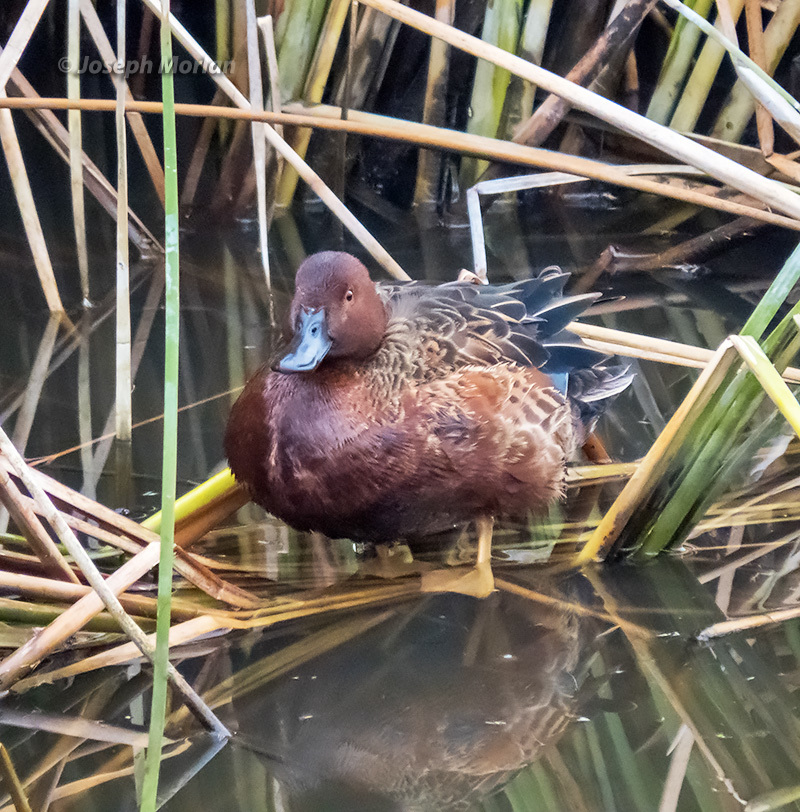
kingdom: Animalia
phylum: Chordata
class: Aves
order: Anseriformes
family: Anatidae
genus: Spatula
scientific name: Spatula cyanoptera
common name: Cinnamon teal
